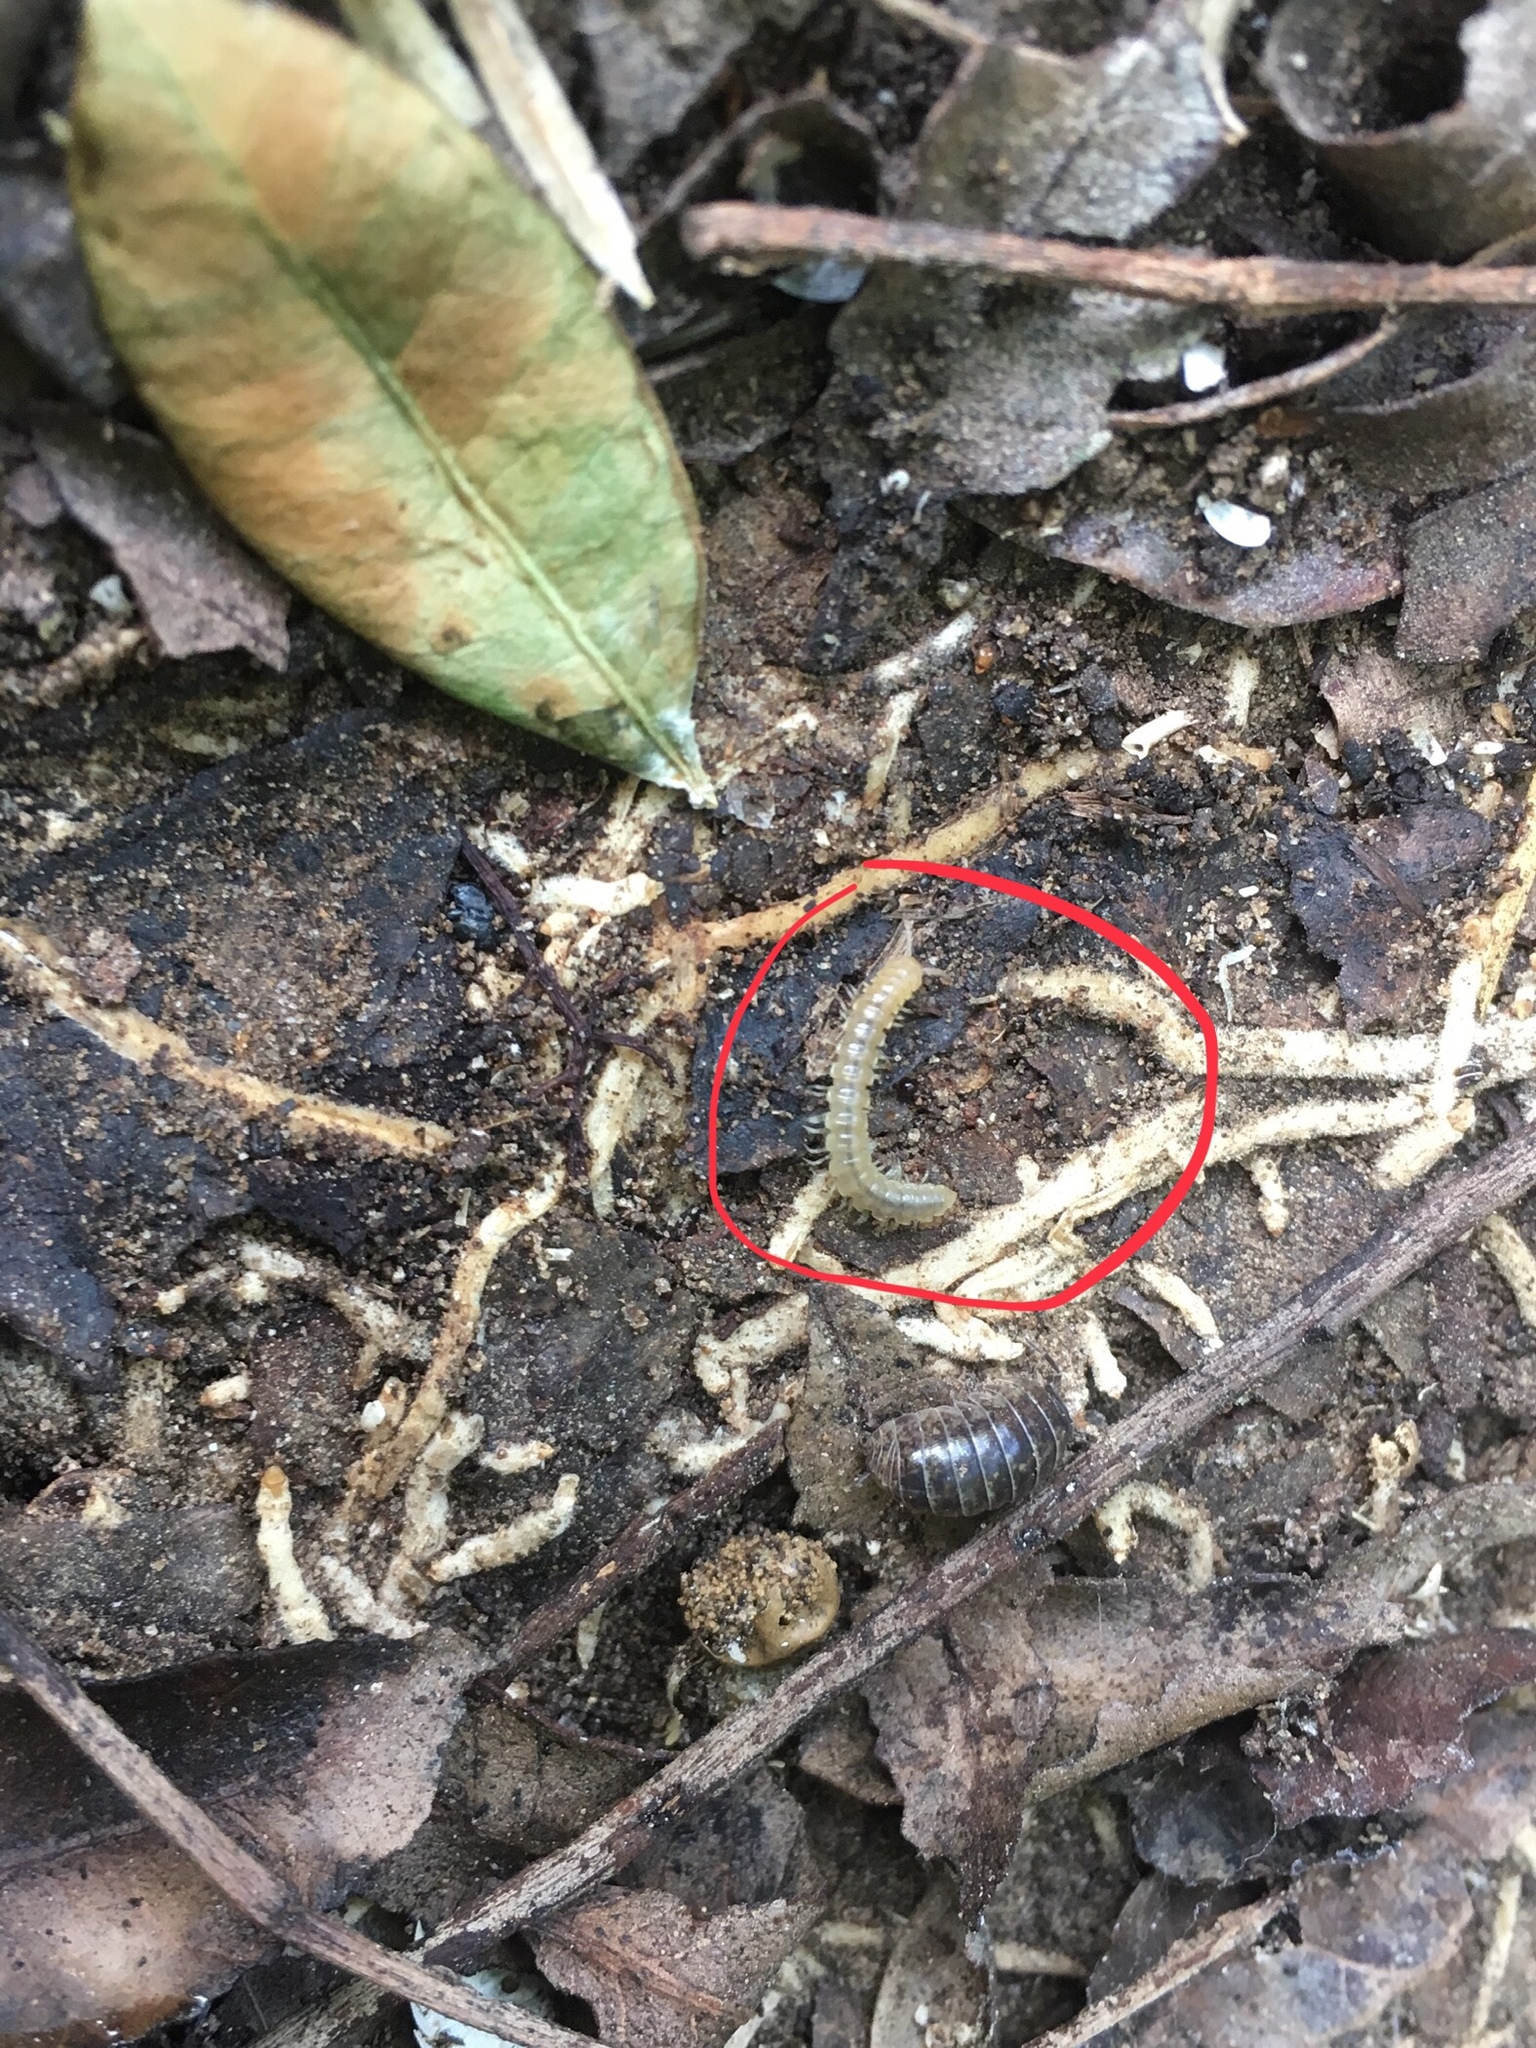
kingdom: Animalia
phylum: Arthropoda
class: Diplopoda
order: Polydesmida
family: Paradoxosomatidae
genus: Oxidus
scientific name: Oxidus gracilis
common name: Greenhouse millipede
